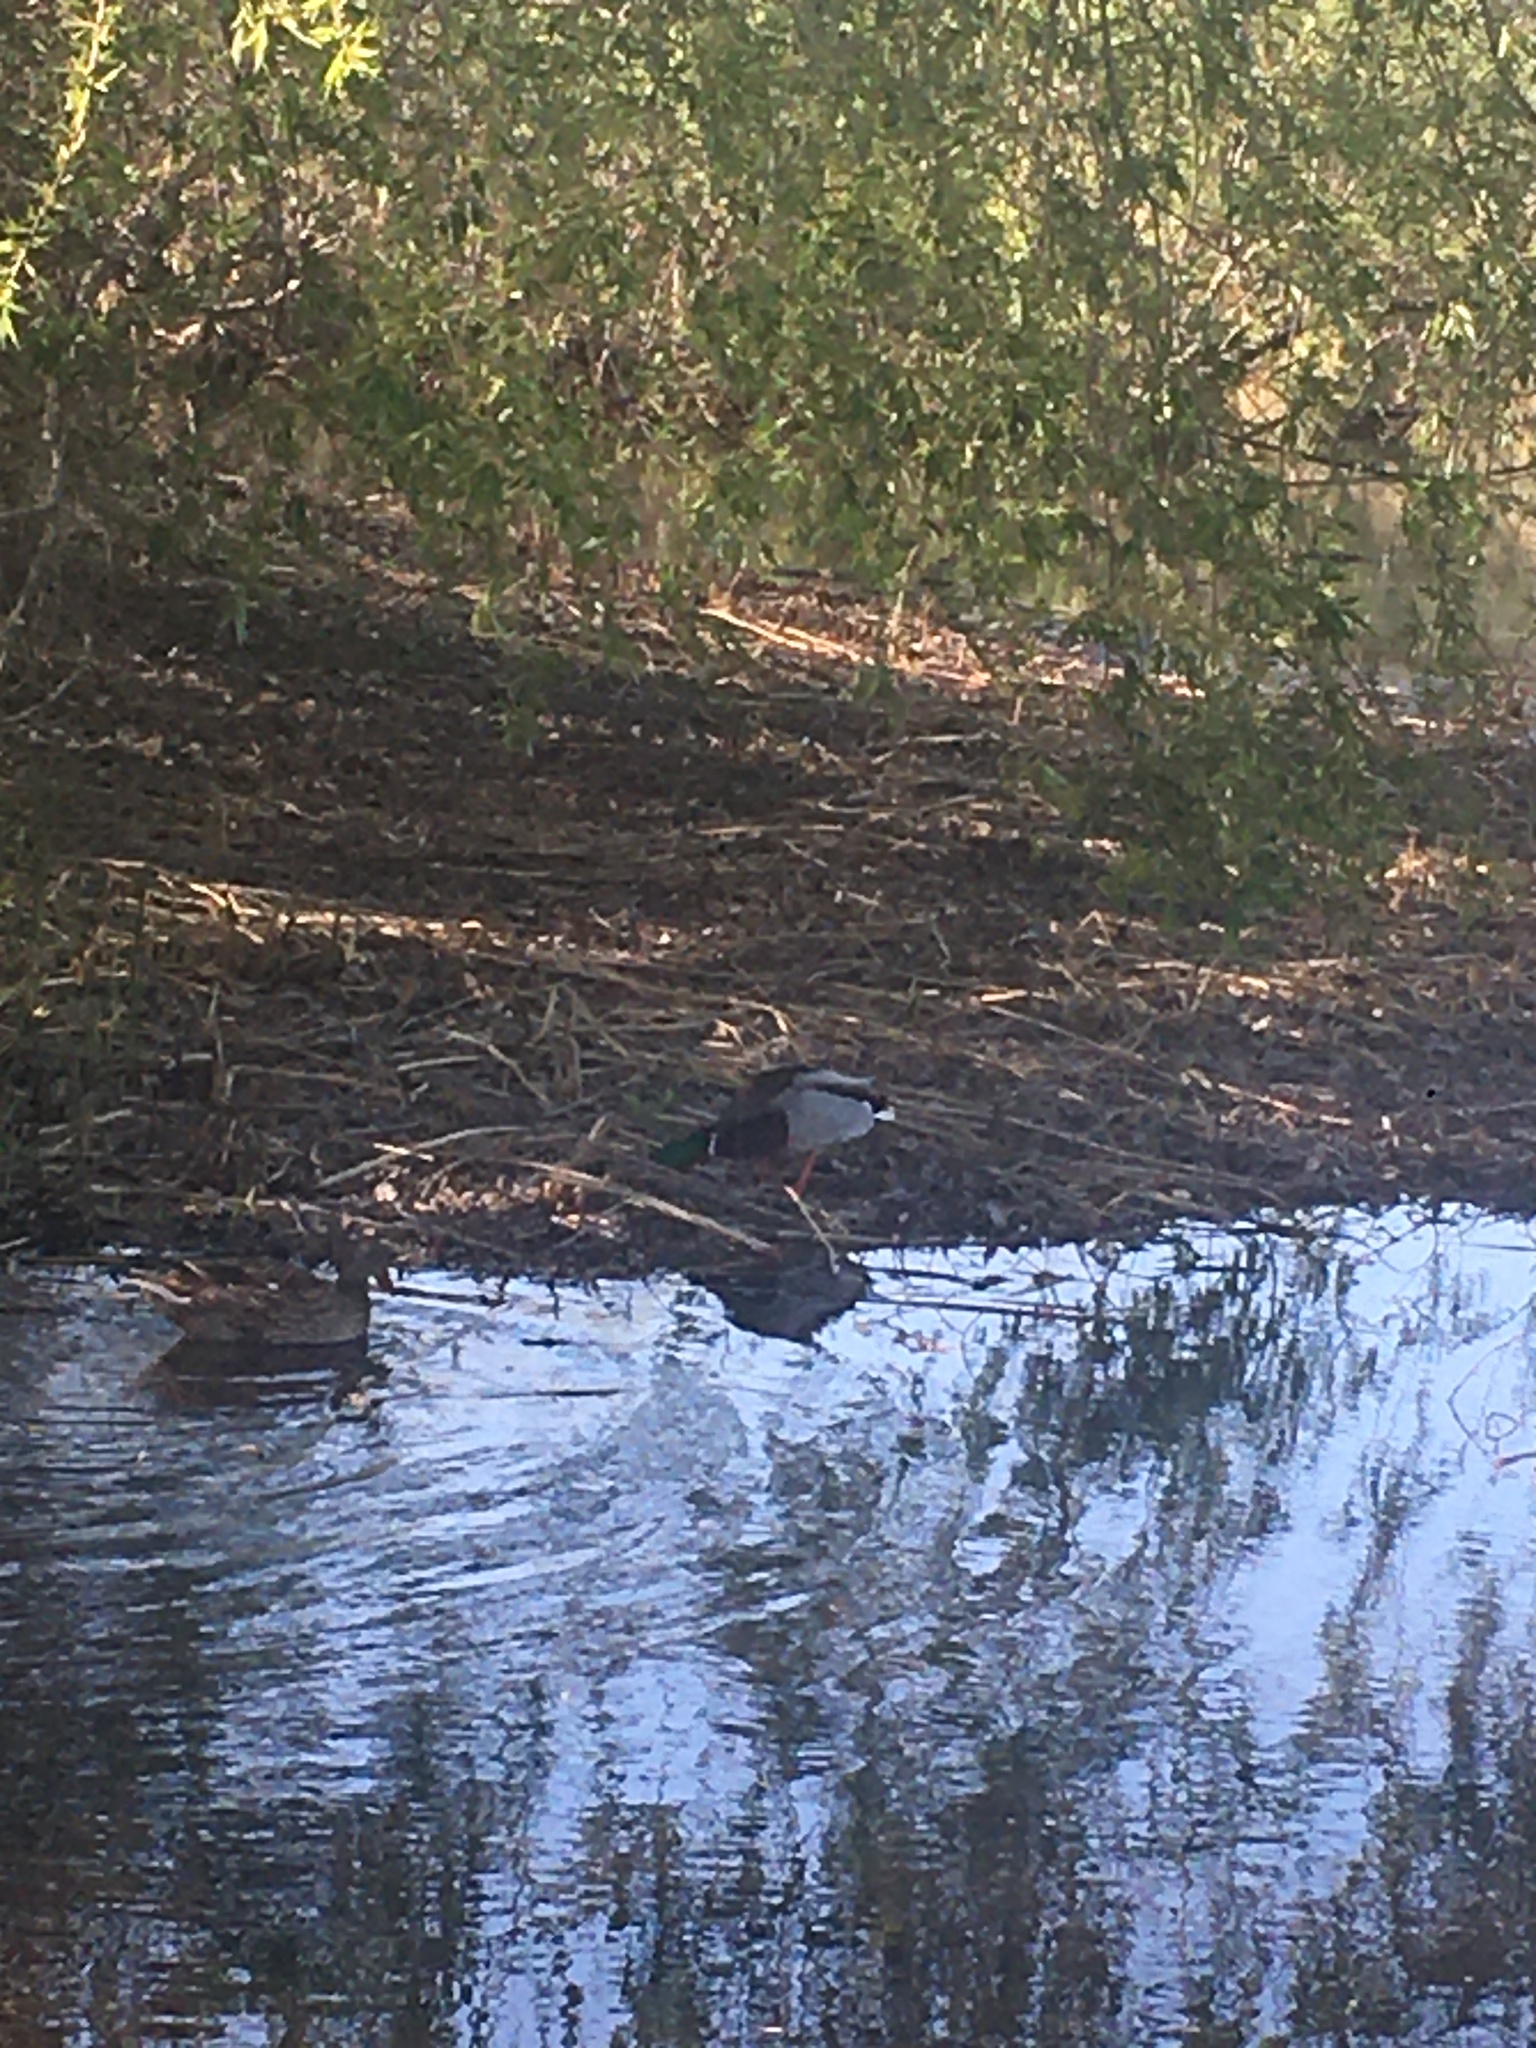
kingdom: Animalia
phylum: Chordata
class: Aves
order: Anseriformes
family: Anatidae
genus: Anas
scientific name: Anas platyrhynchos
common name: Mallard
